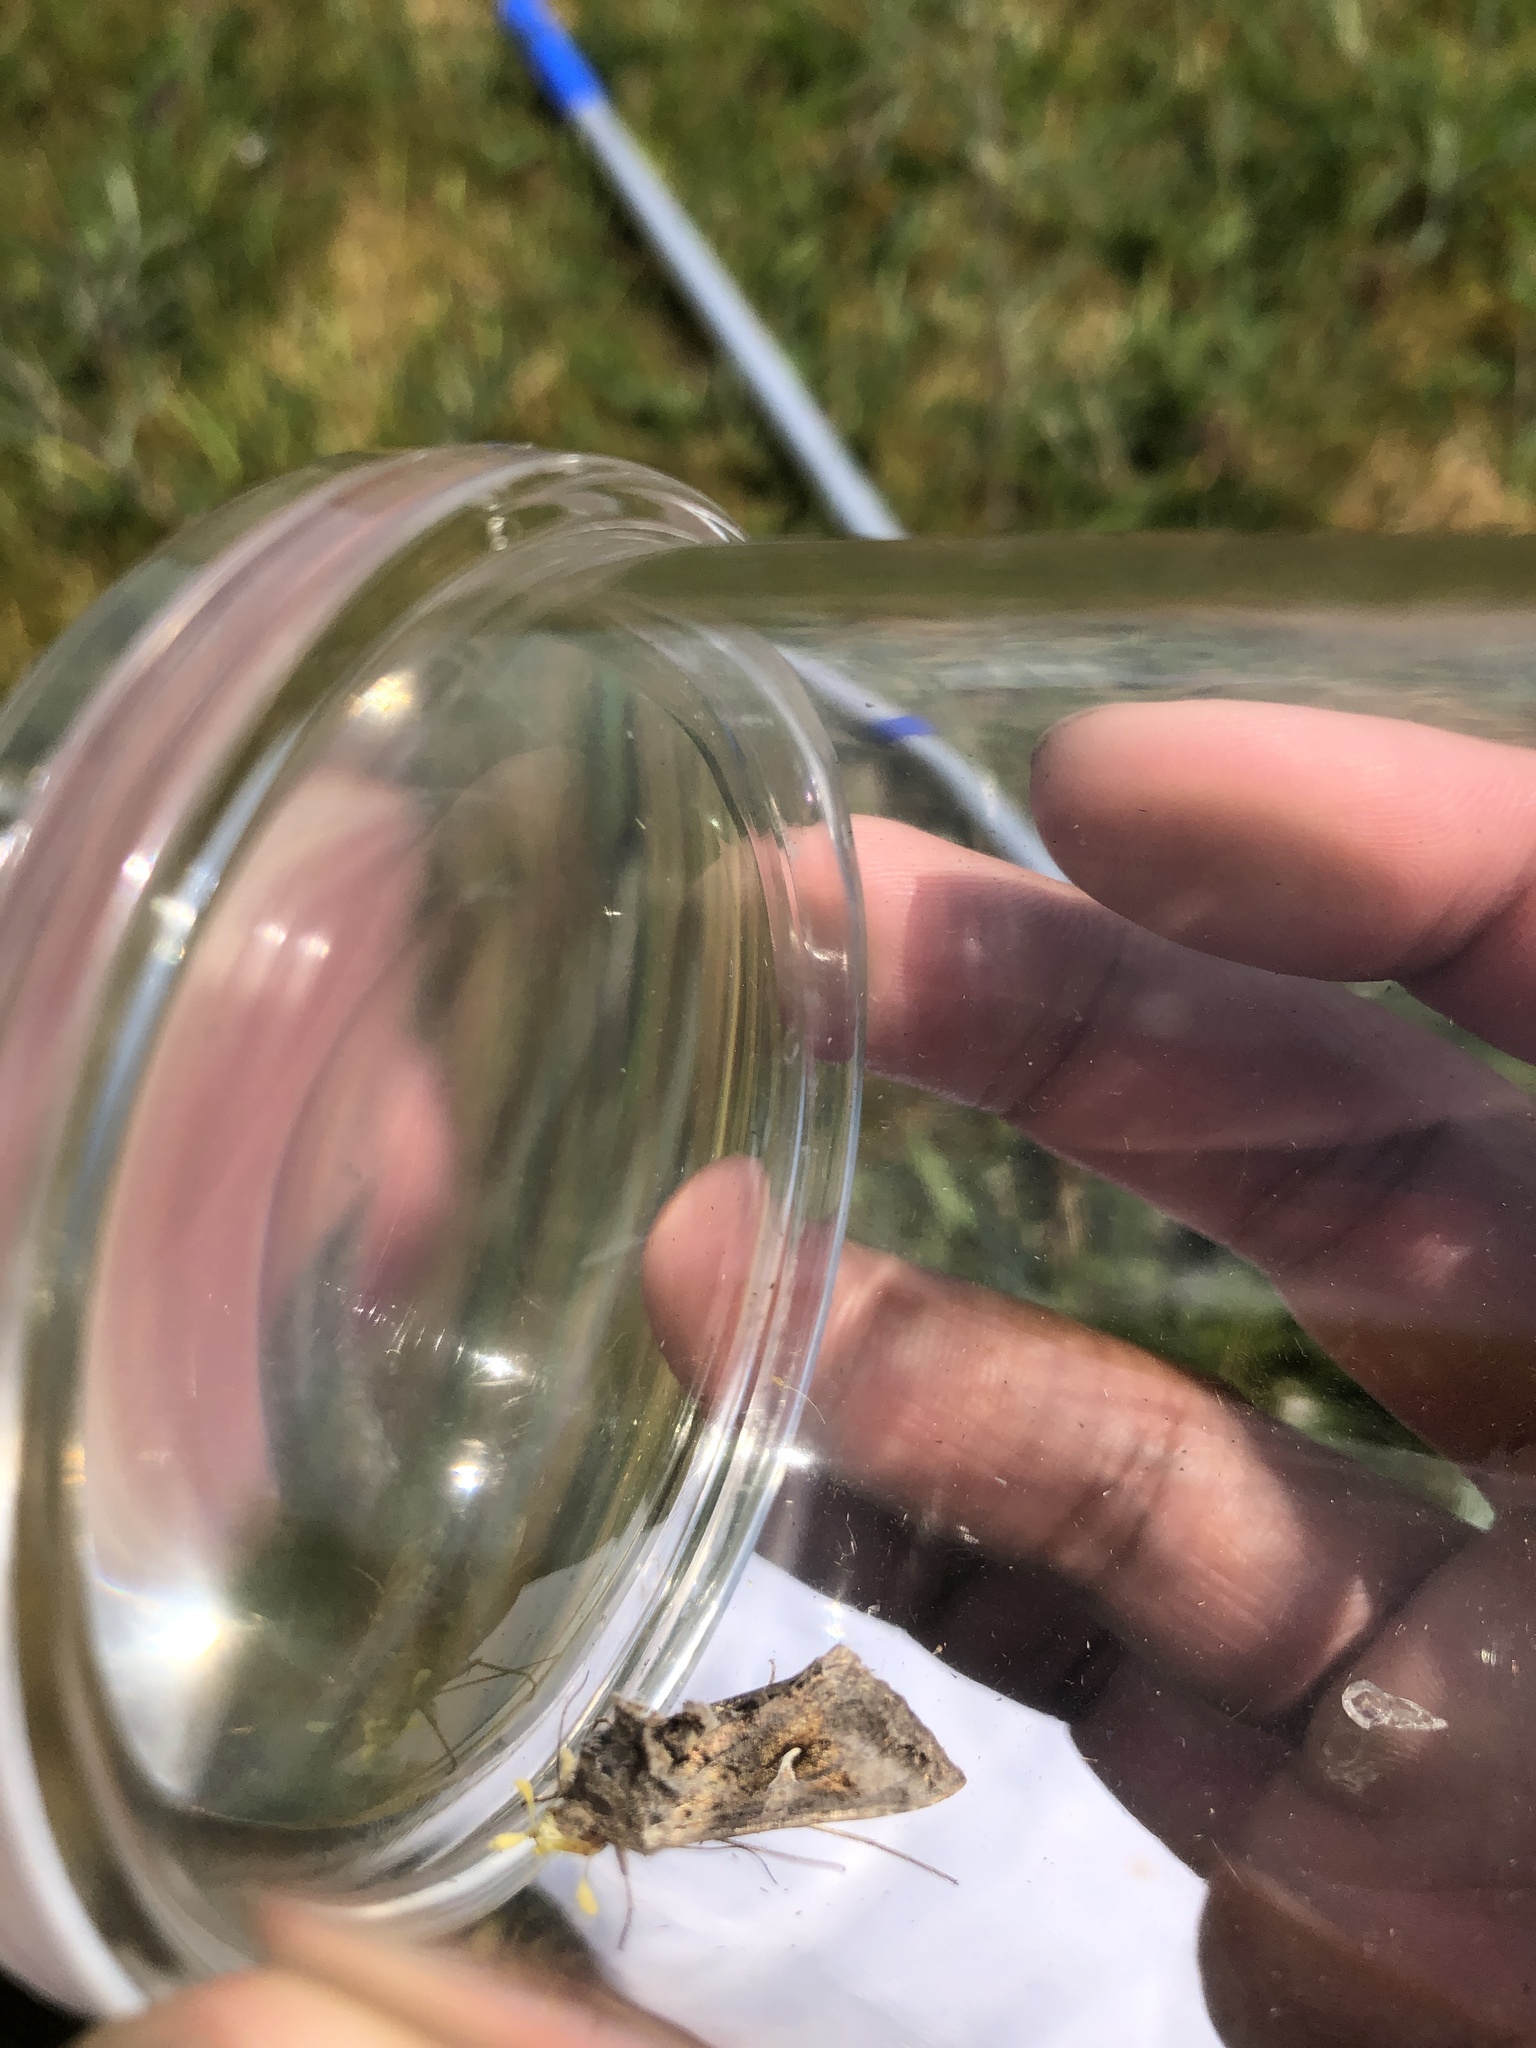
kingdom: Animalia
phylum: Arthropoda
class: Insecta
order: Lepidoptera
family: Noctuidae
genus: Autographa
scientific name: Autographa gamma
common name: Silver y
